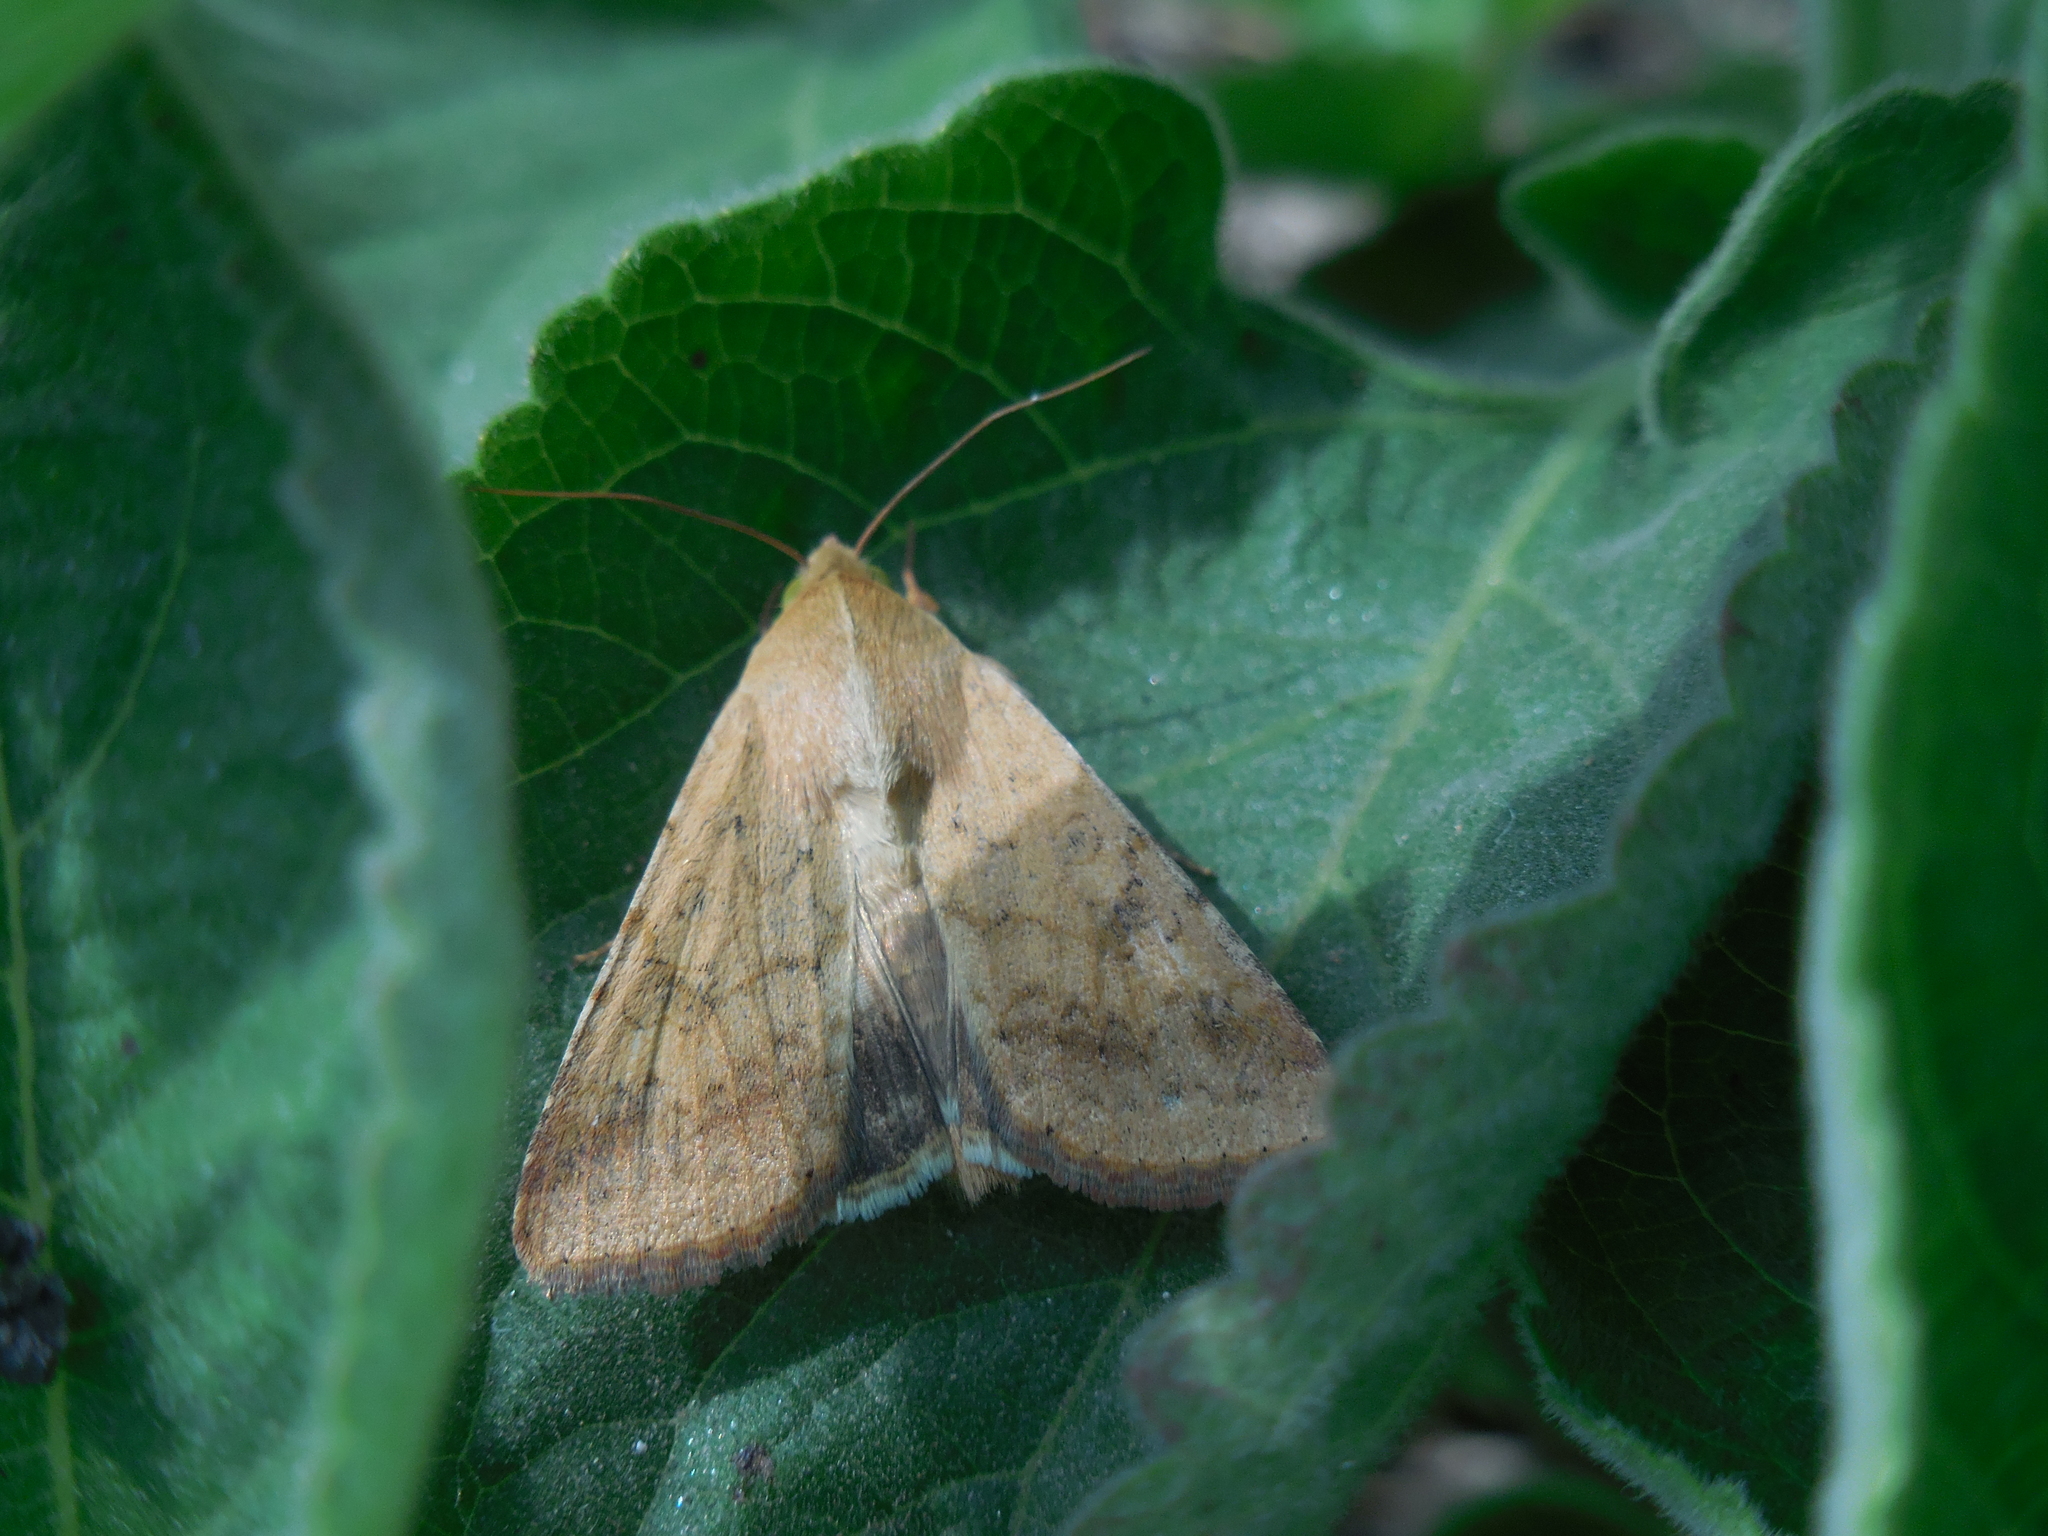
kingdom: Animalia
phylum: Arthropoda
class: Insecta
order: Lepidoptera
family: Noctuidae
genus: Helicoverpa
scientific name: Helicoverpa armigera
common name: Cotton bollworm
